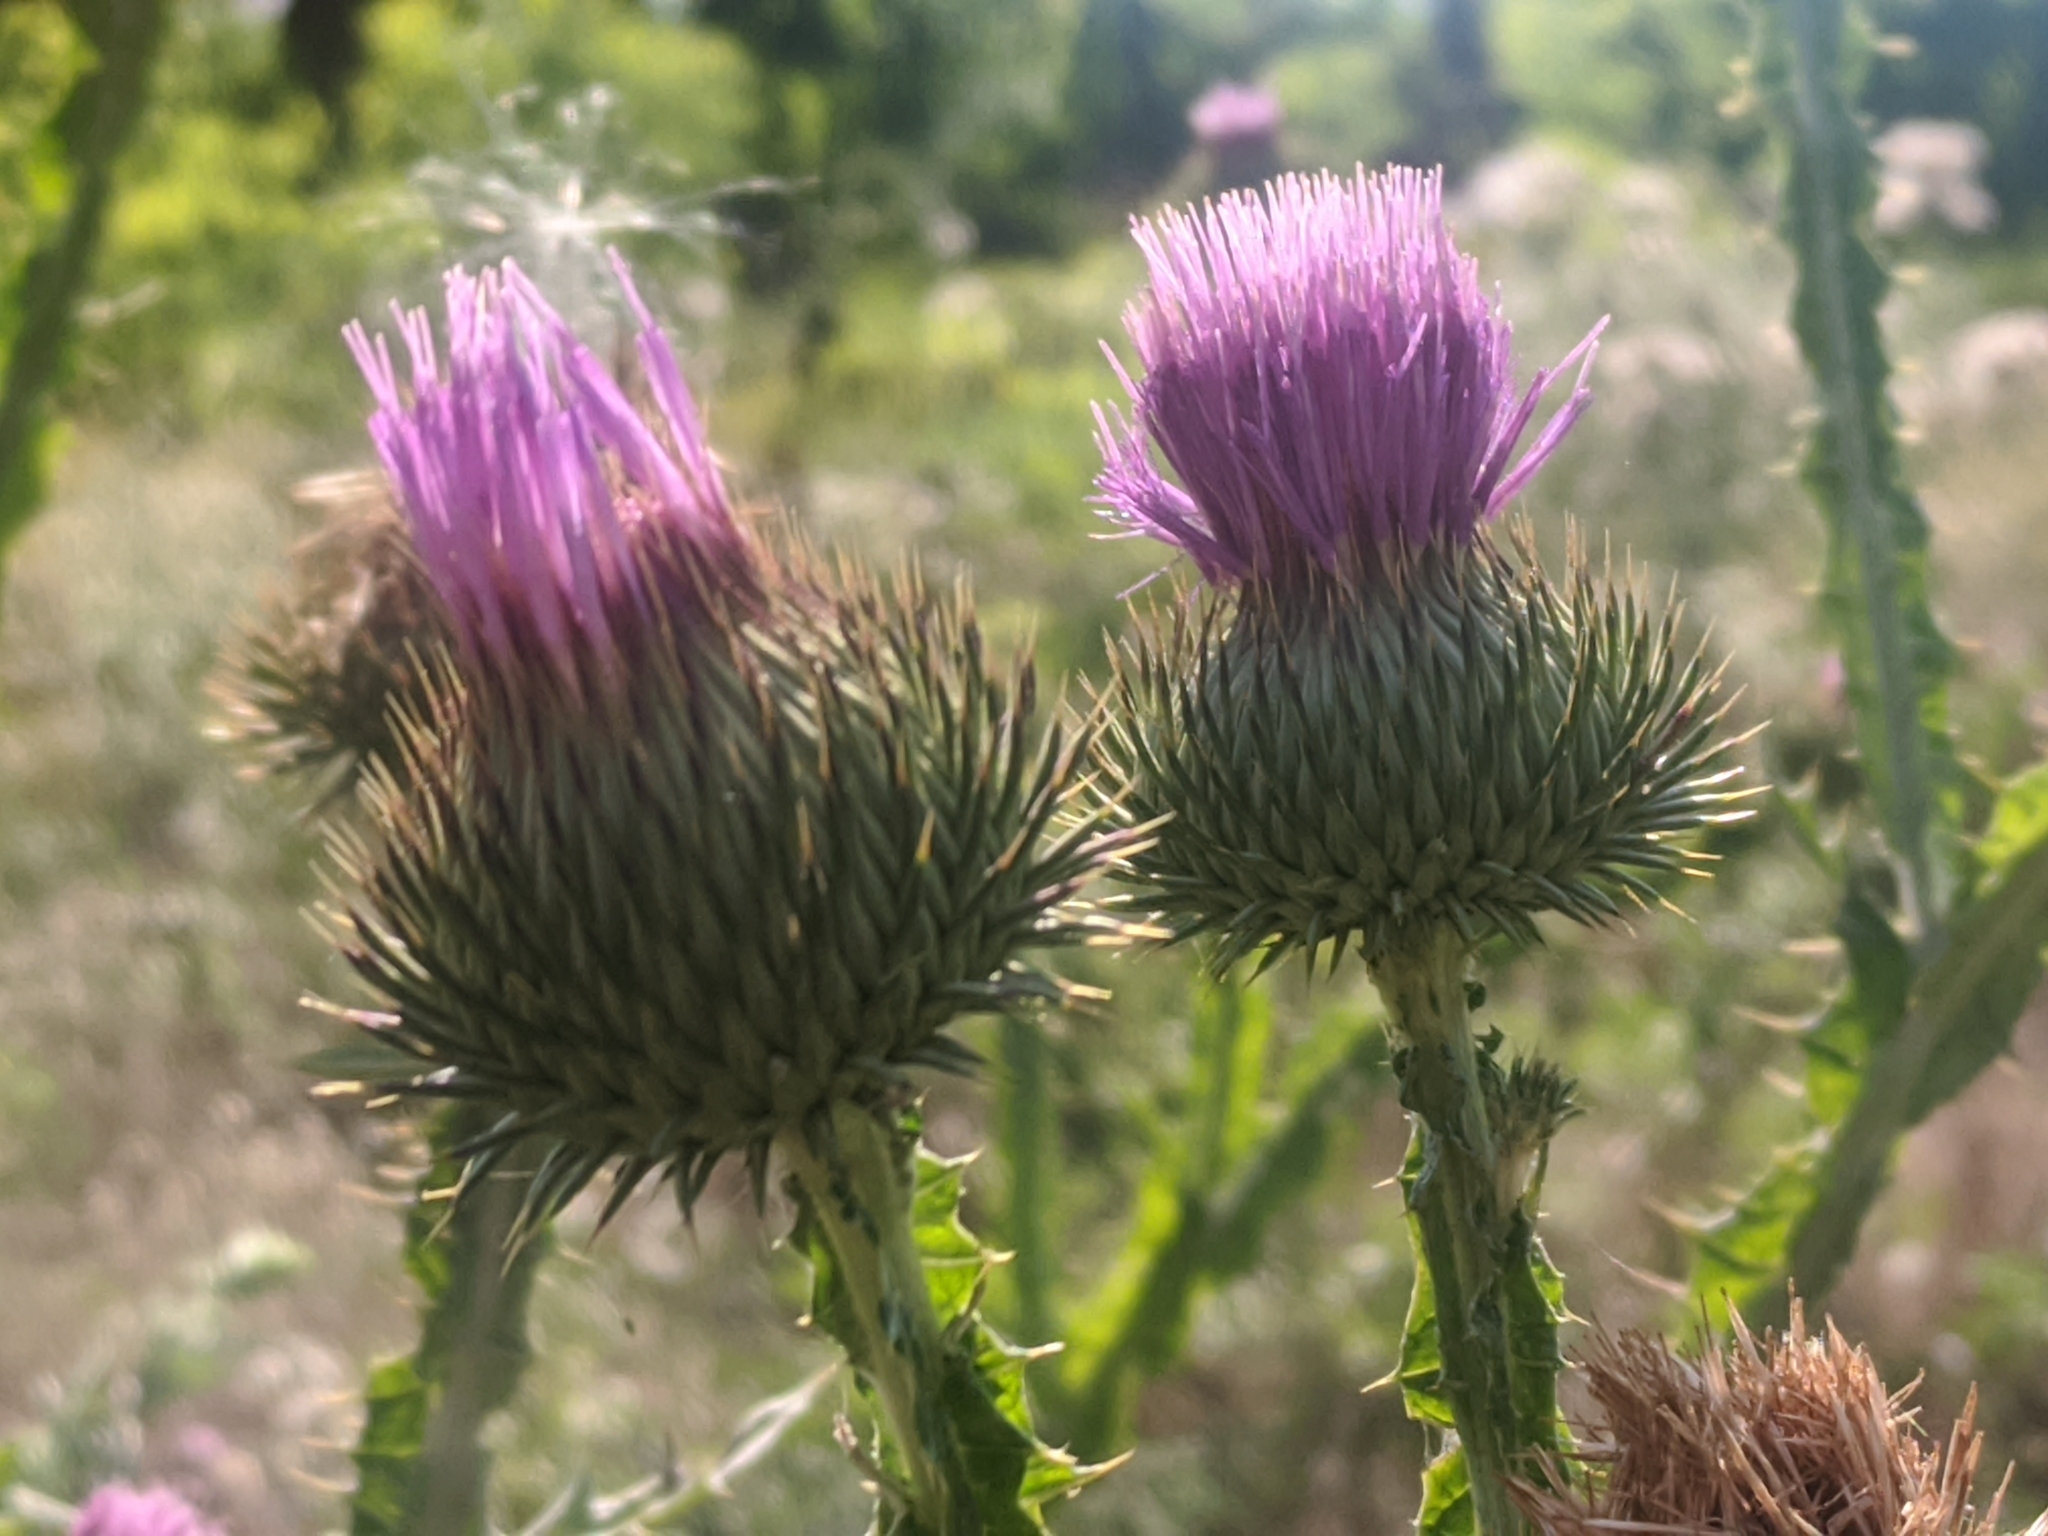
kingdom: Plantae
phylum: Tracheophyta
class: Magnoliopsida
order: Asterales
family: Asteraceae
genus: Onopordum
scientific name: Onopordum acanthium
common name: Scotch thistle
